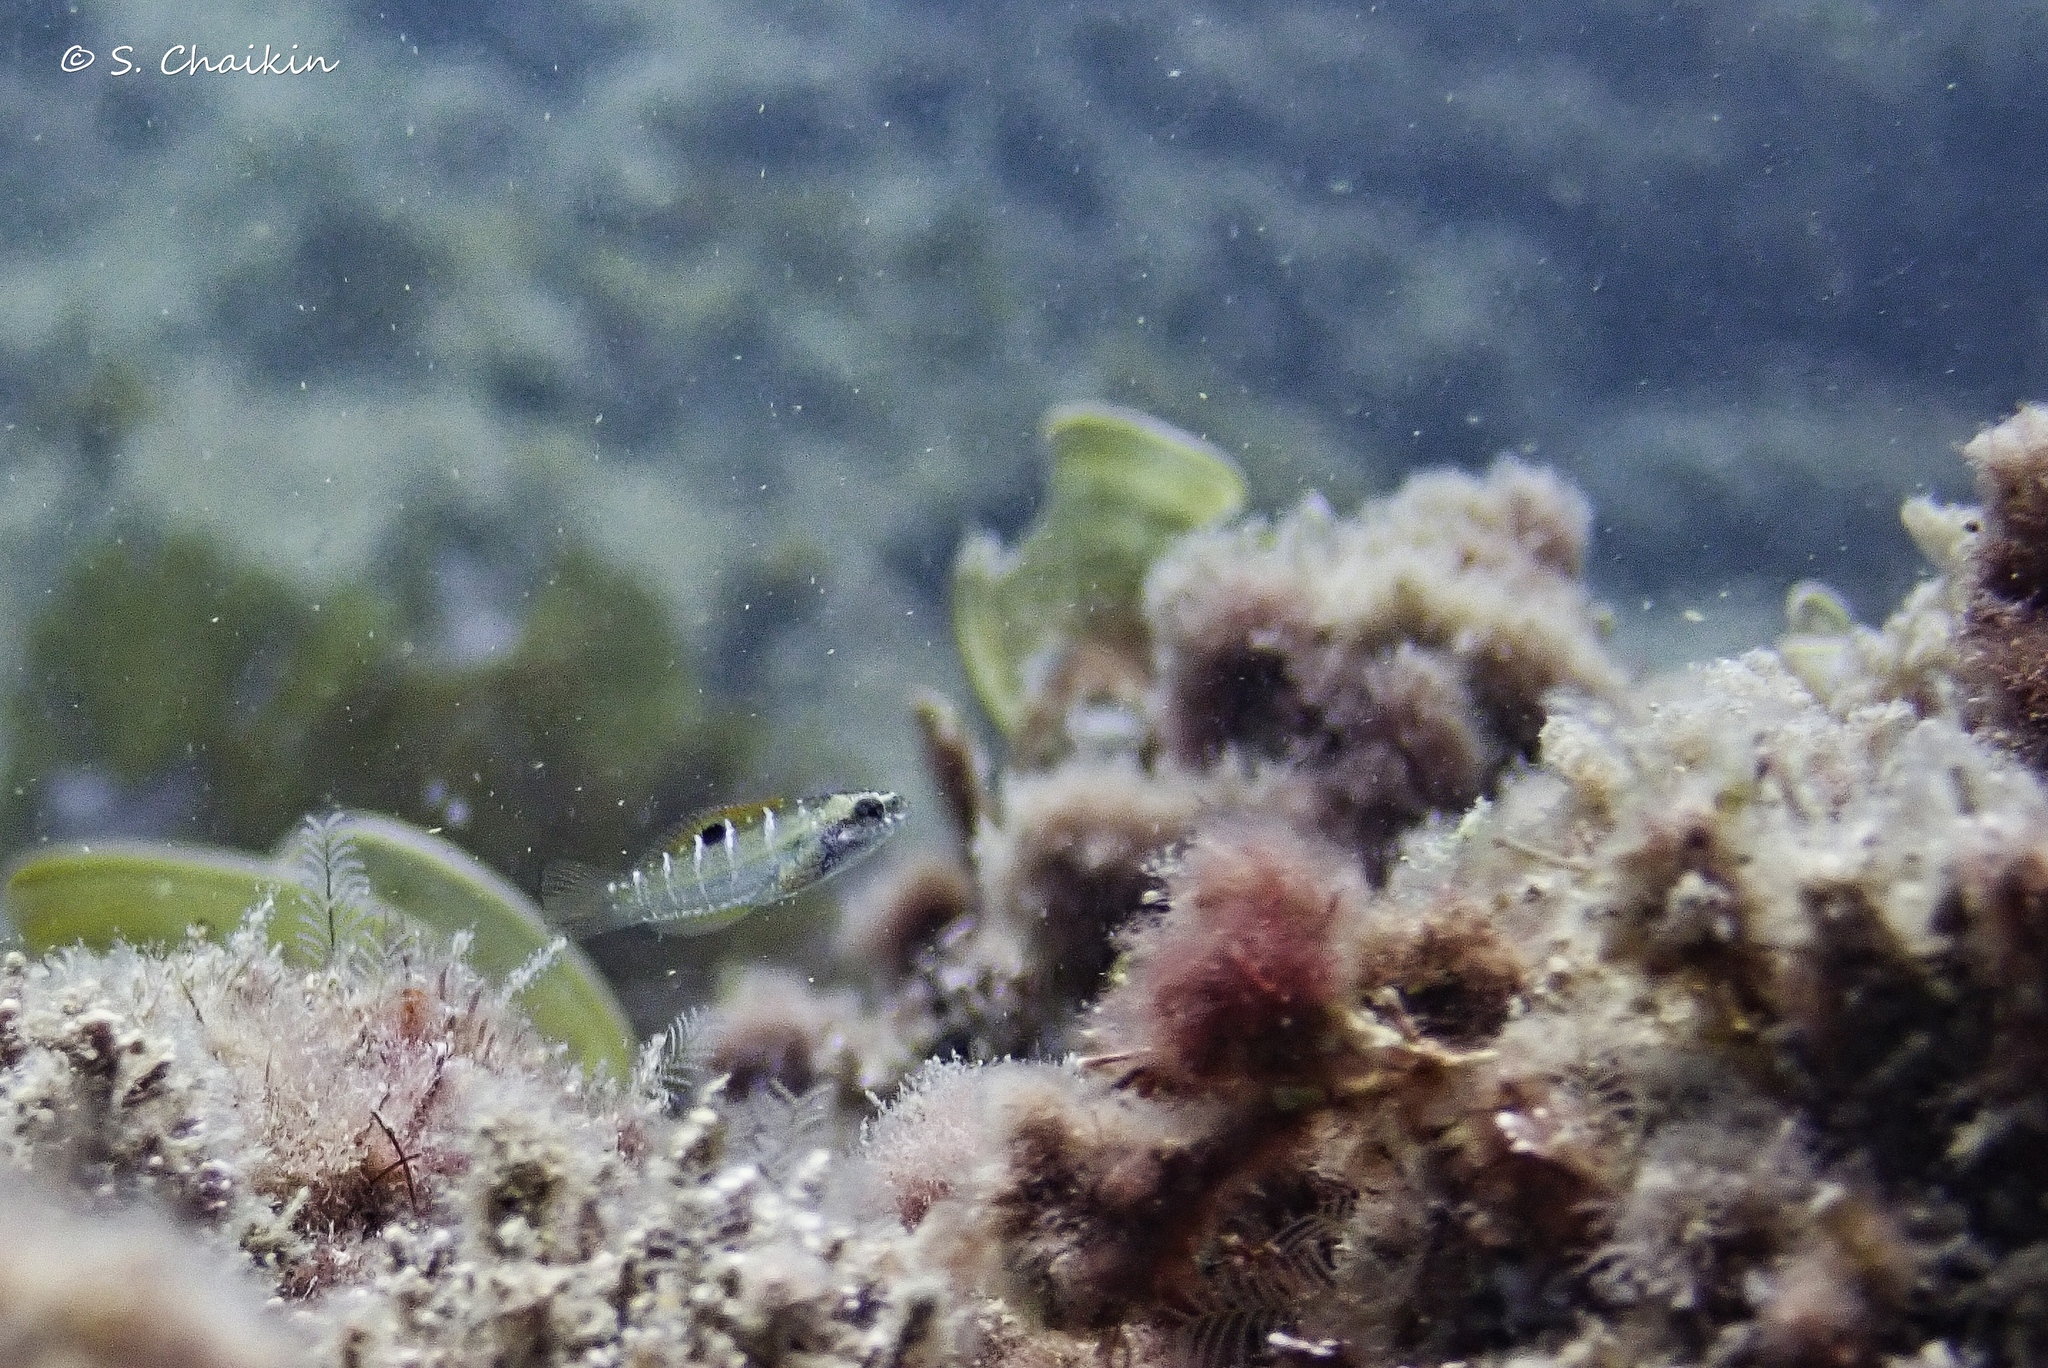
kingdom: Animalia
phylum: Chordata
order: Perciformes
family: Labridae
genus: Thalassoma
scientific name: Thalassoma pavo
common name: Ornate wrasse
